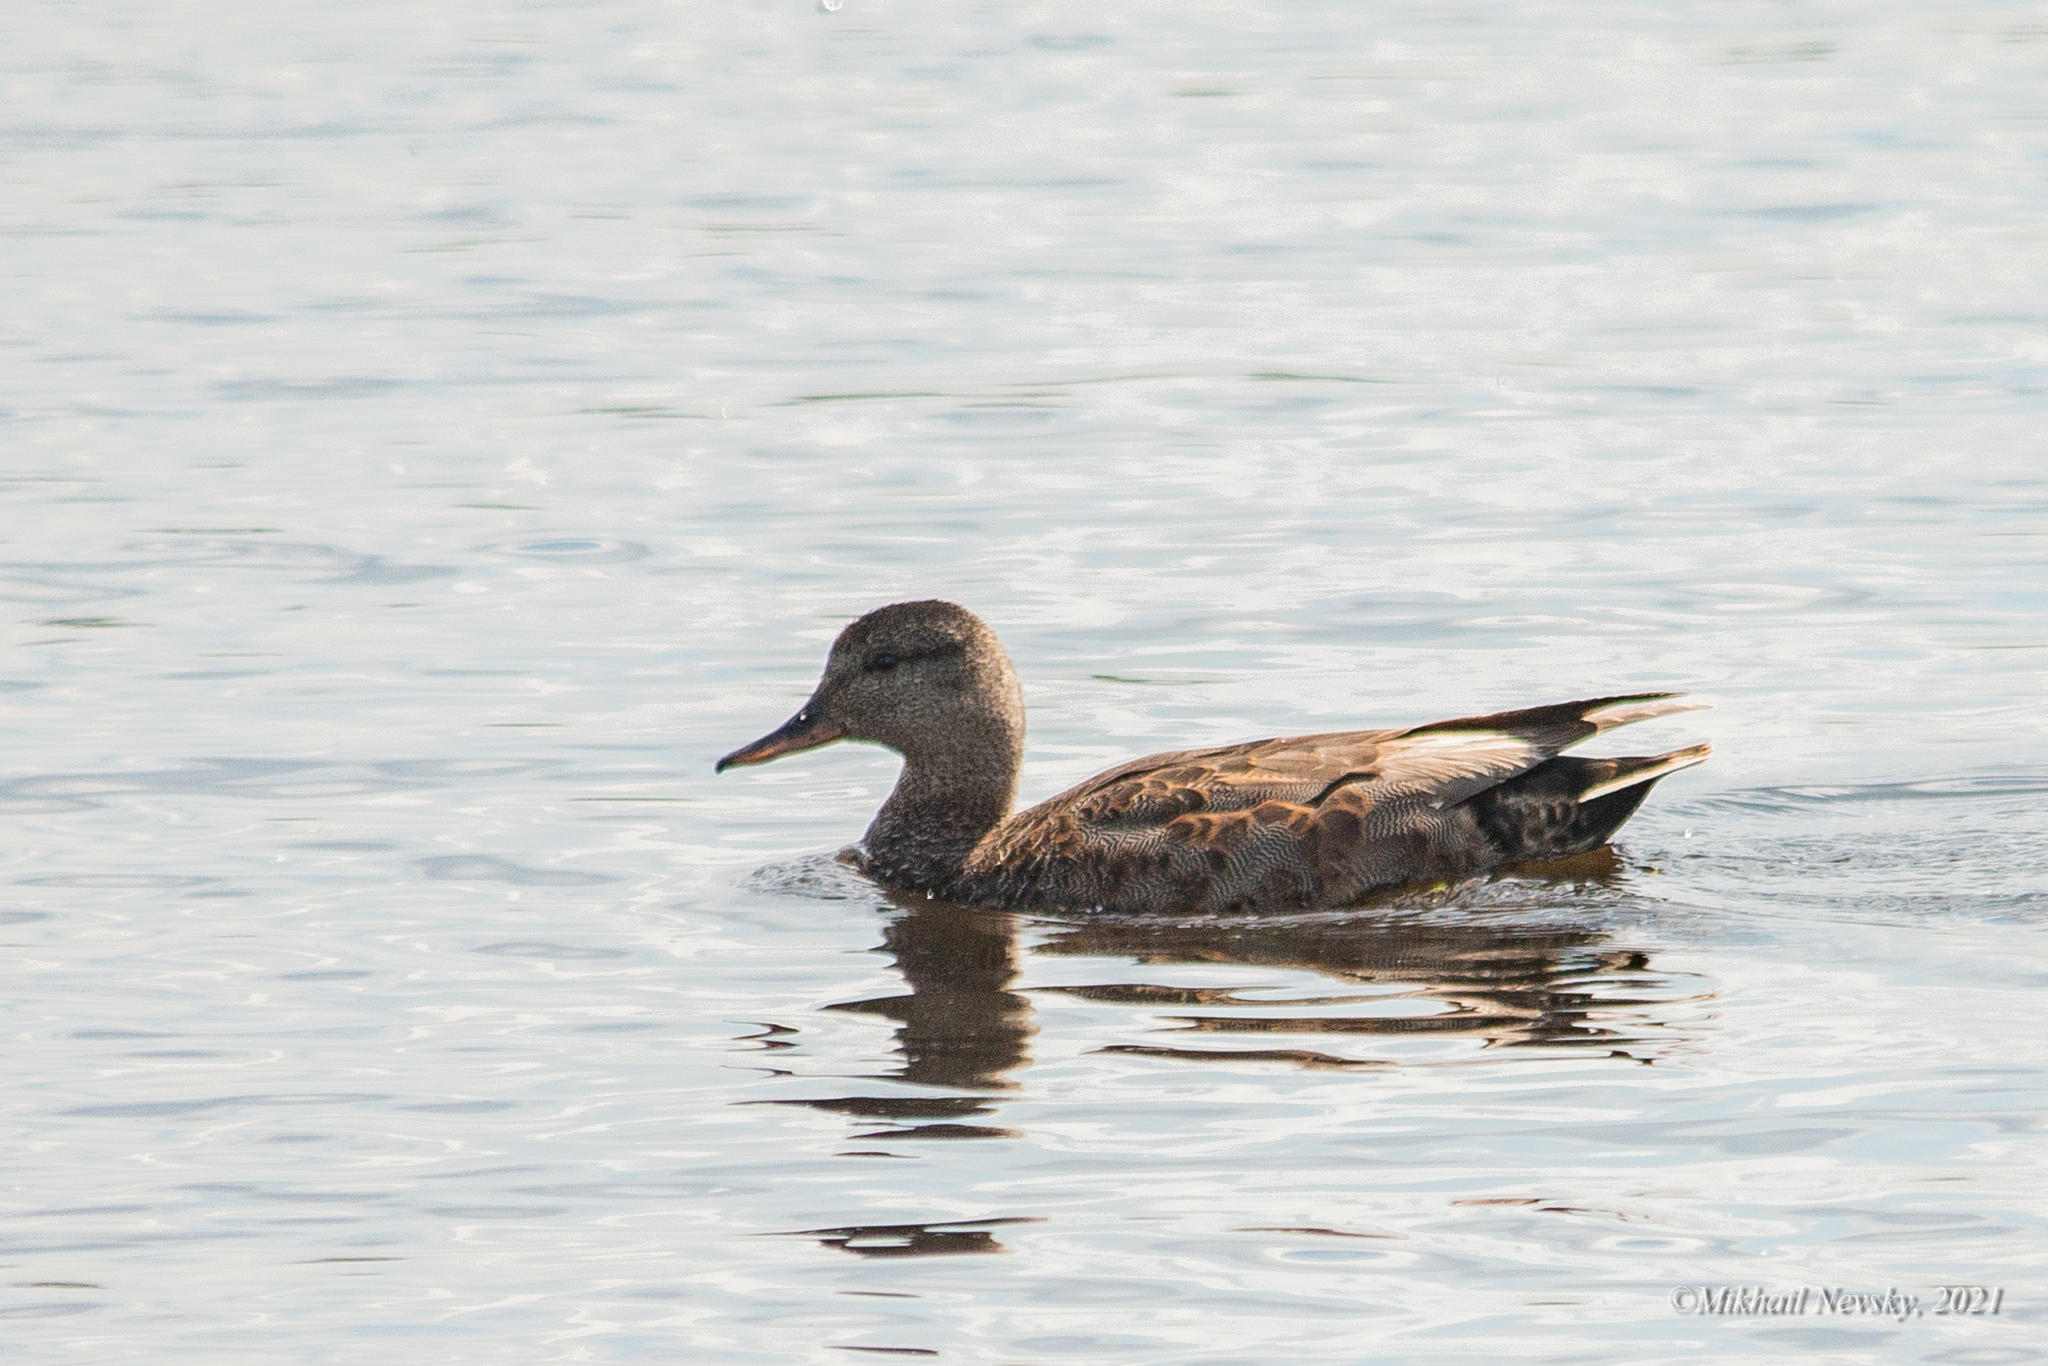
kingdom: Animalia
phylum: Chordata
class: Aves
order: Anseriformes
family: Anatidae
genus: Mareca
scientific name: Mareca strepera
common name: Gadwall
